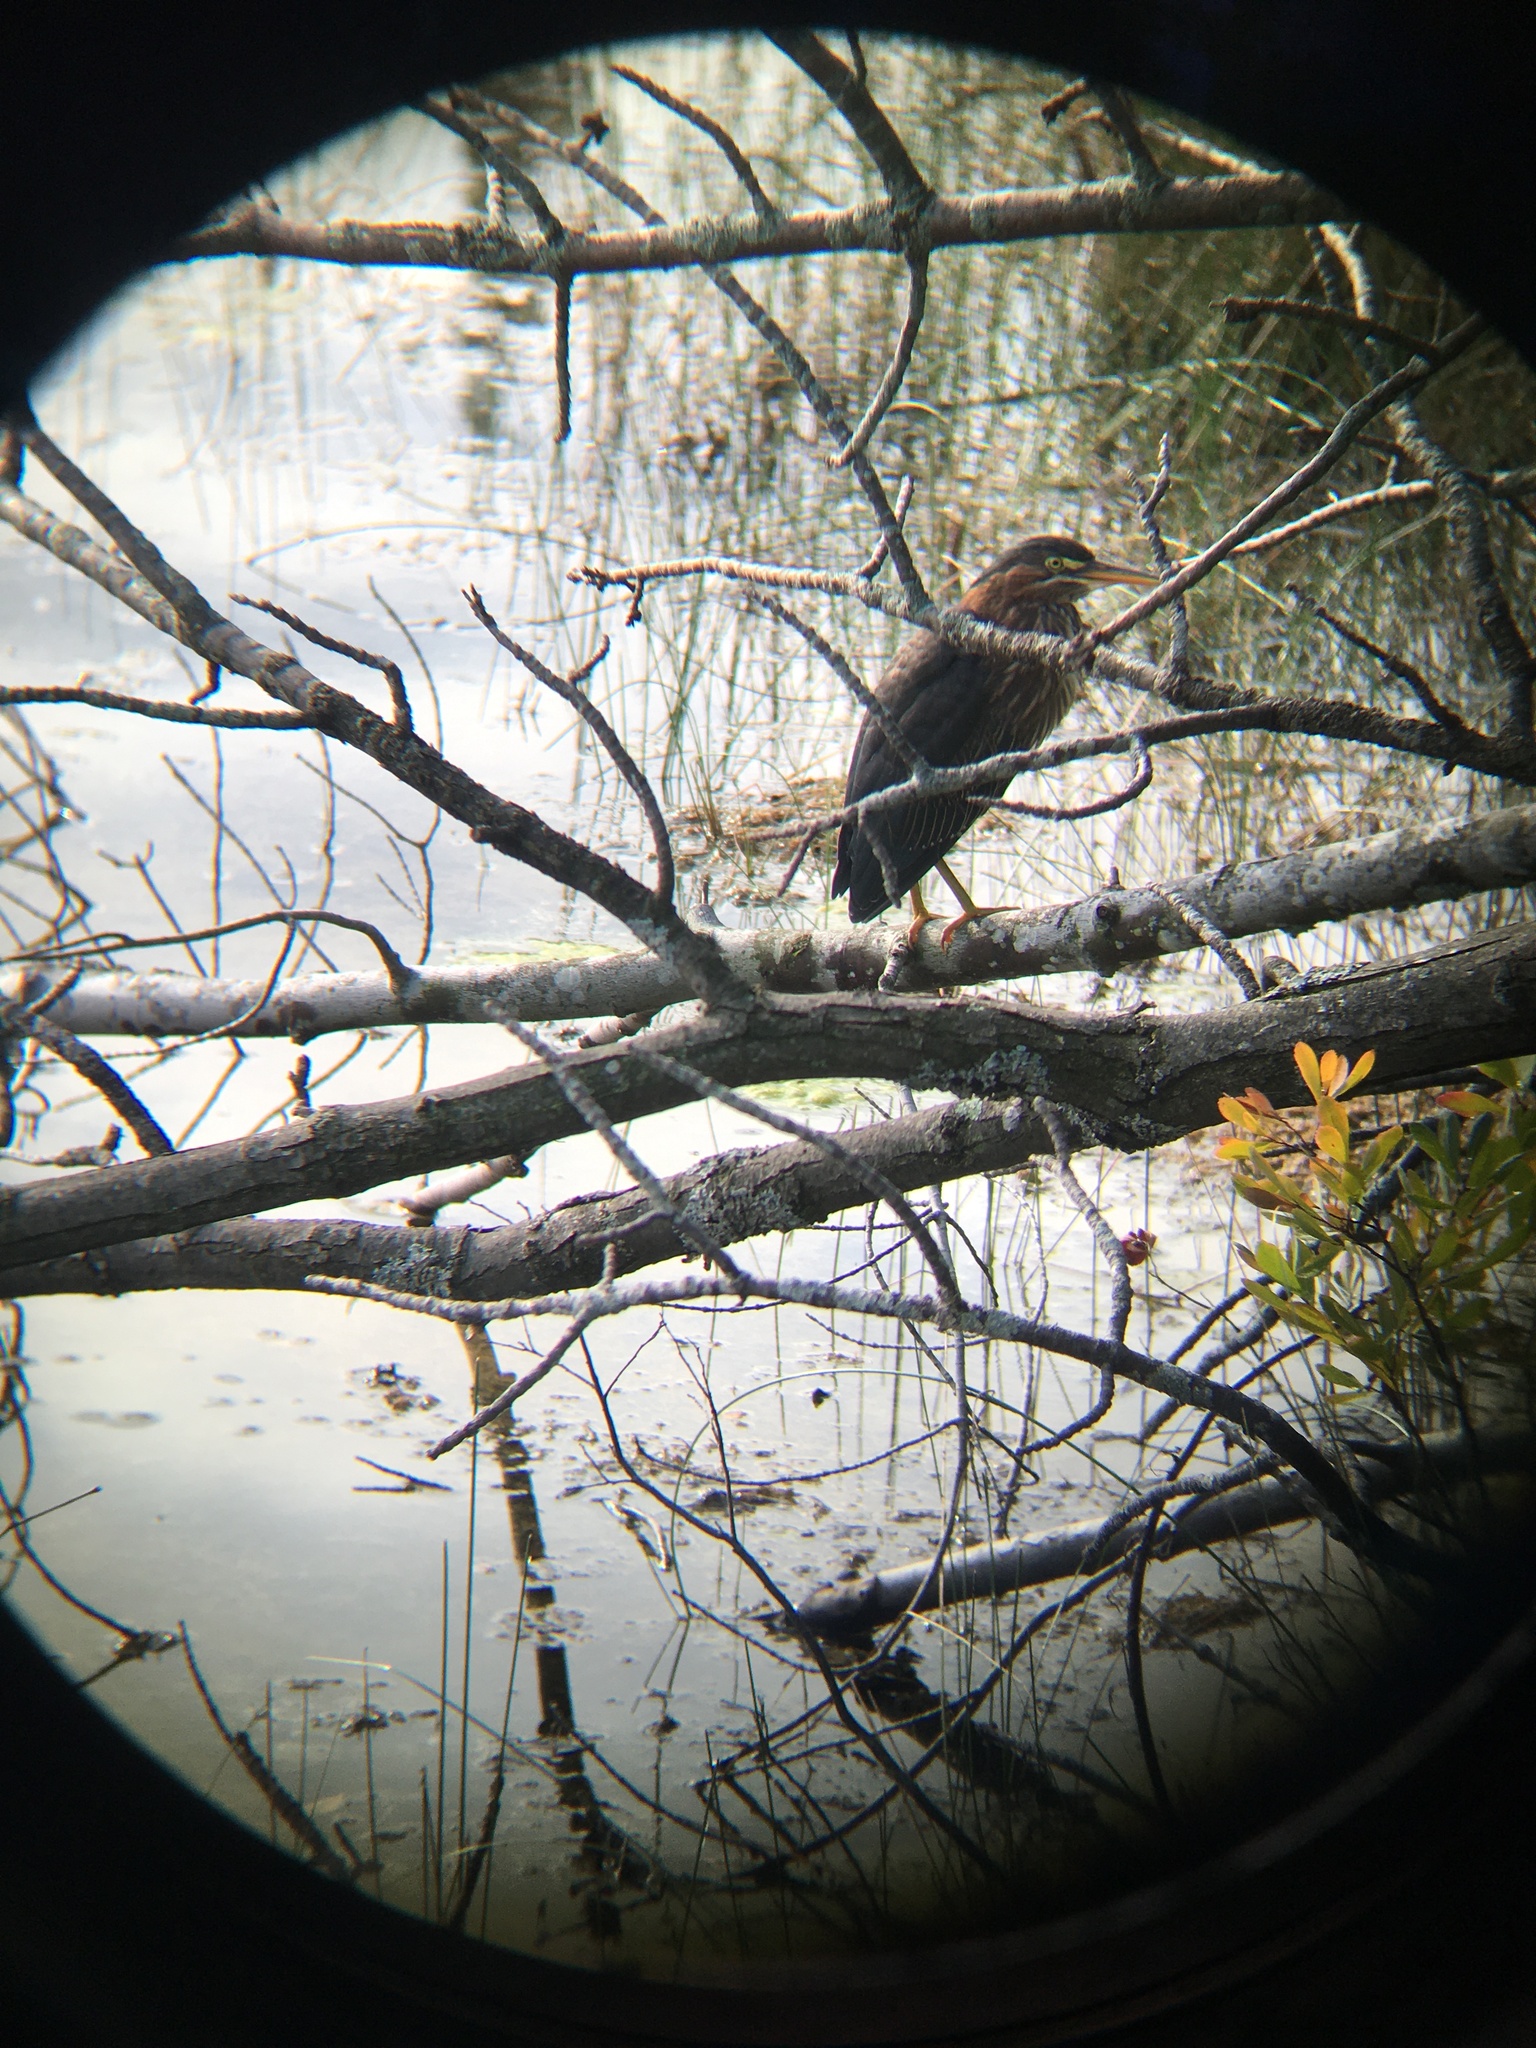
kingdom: Animalia
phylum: Chordata
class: Aves
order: Pelecaniformes
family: Ardeidae
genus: Butorides
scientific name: Butorides virescens
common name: Green heron
